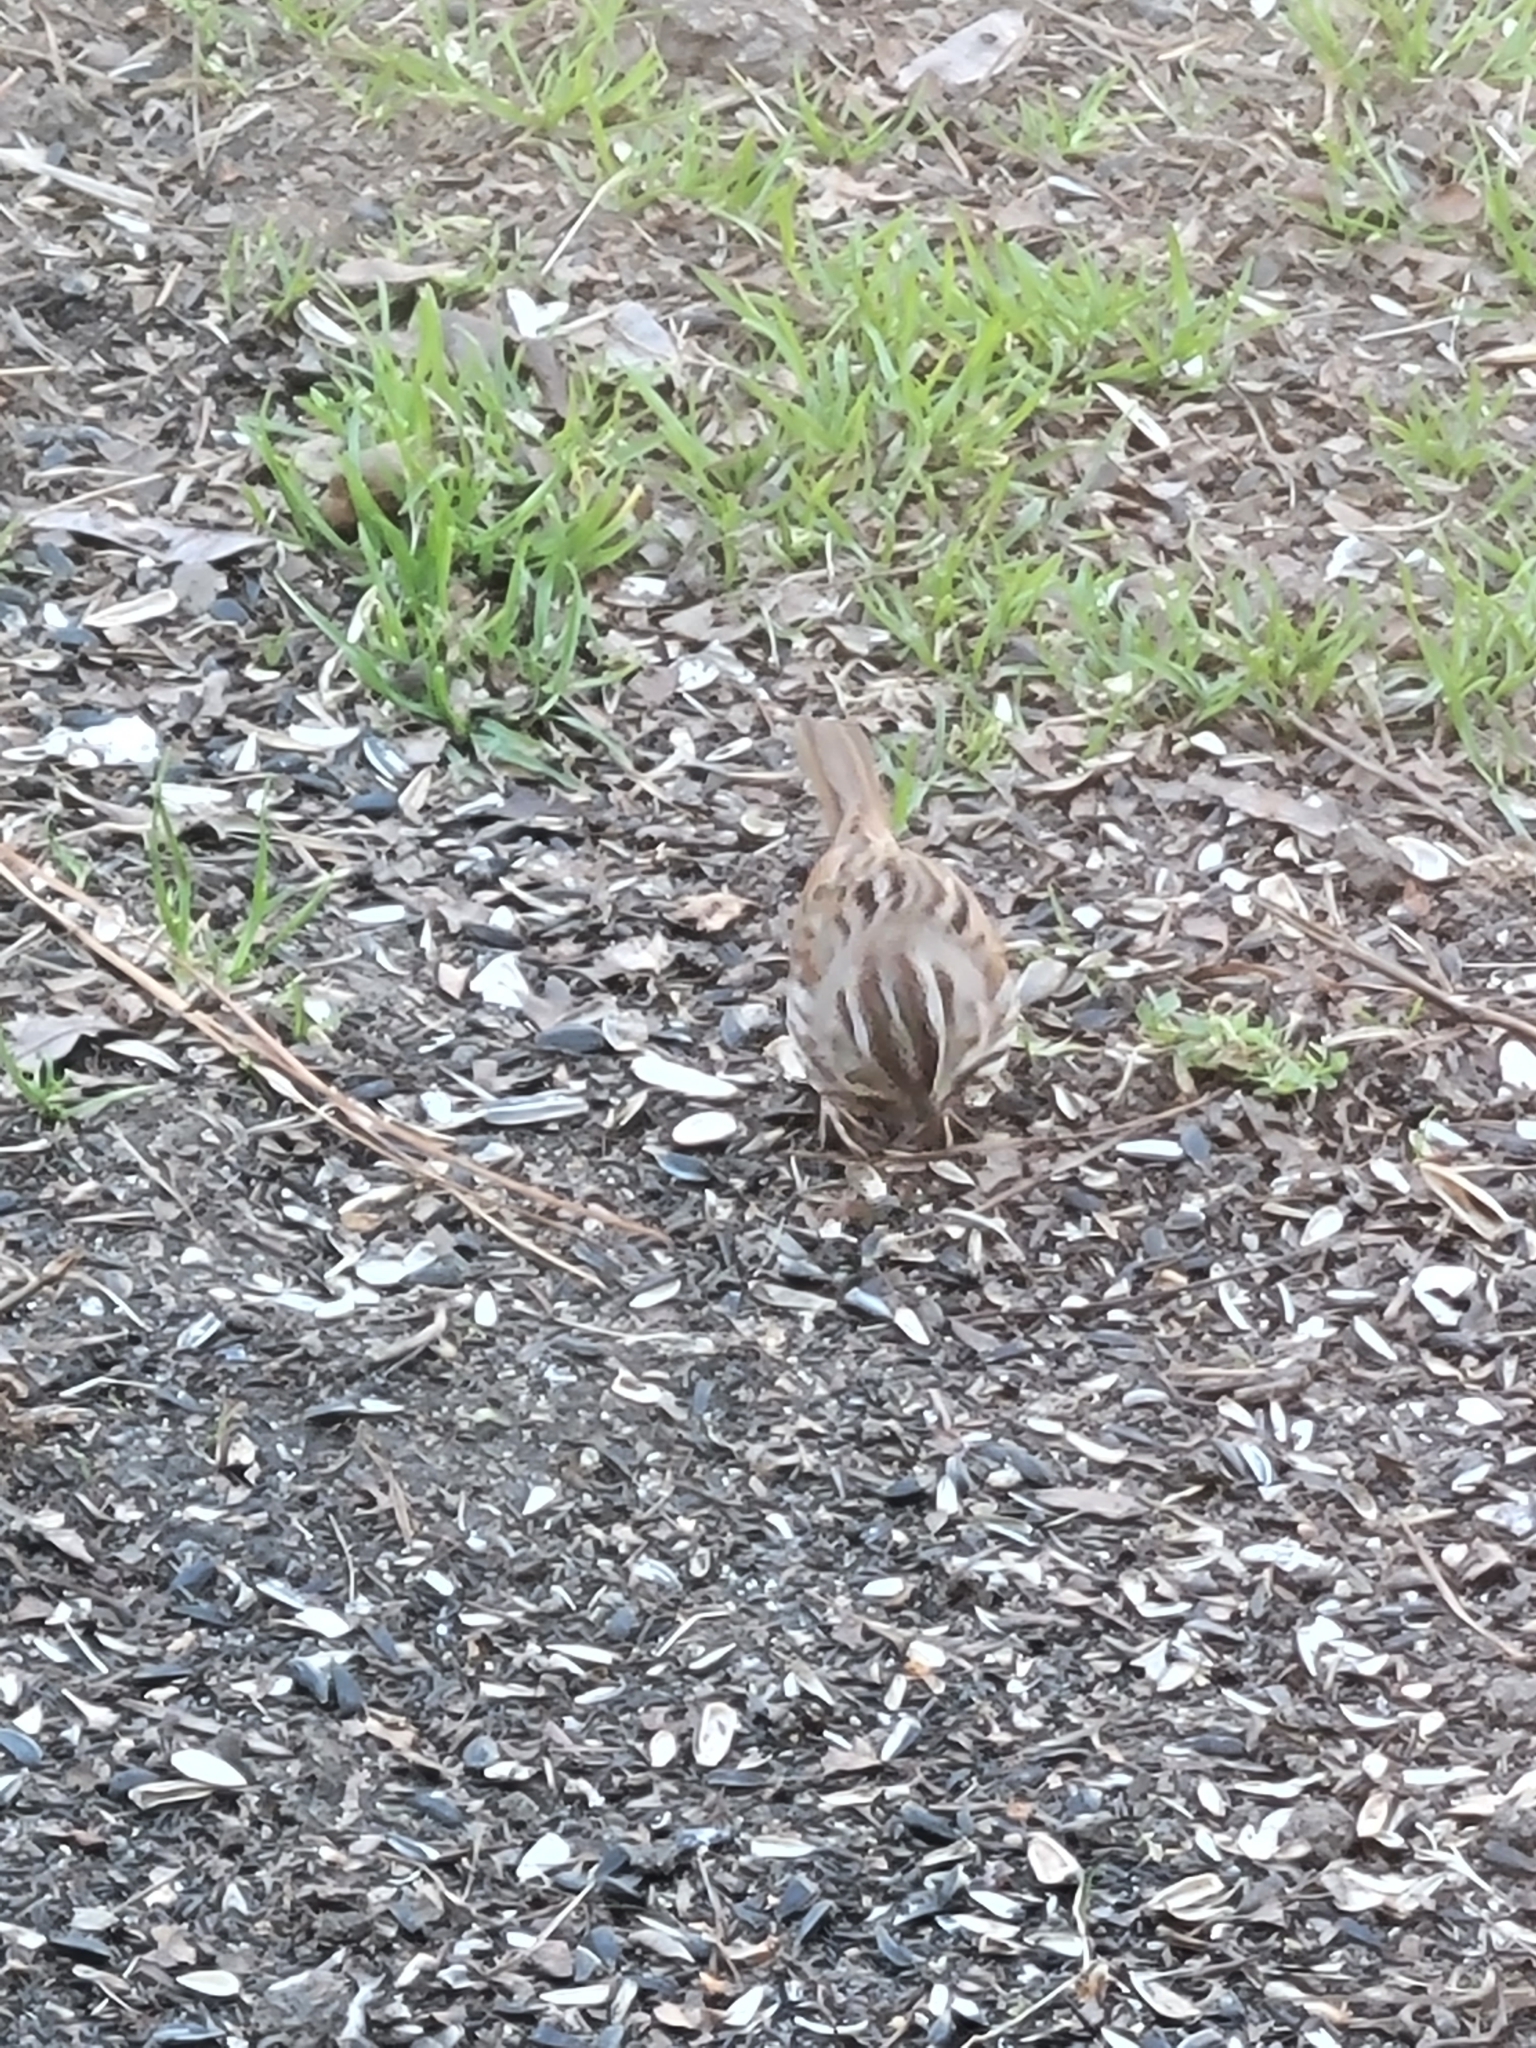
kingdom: Animalia
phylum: Chordata
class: Aves
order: Passeriformes
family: Passerellidae
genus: Melospiza
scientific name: Melospiza melodia
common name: Song sparrow
